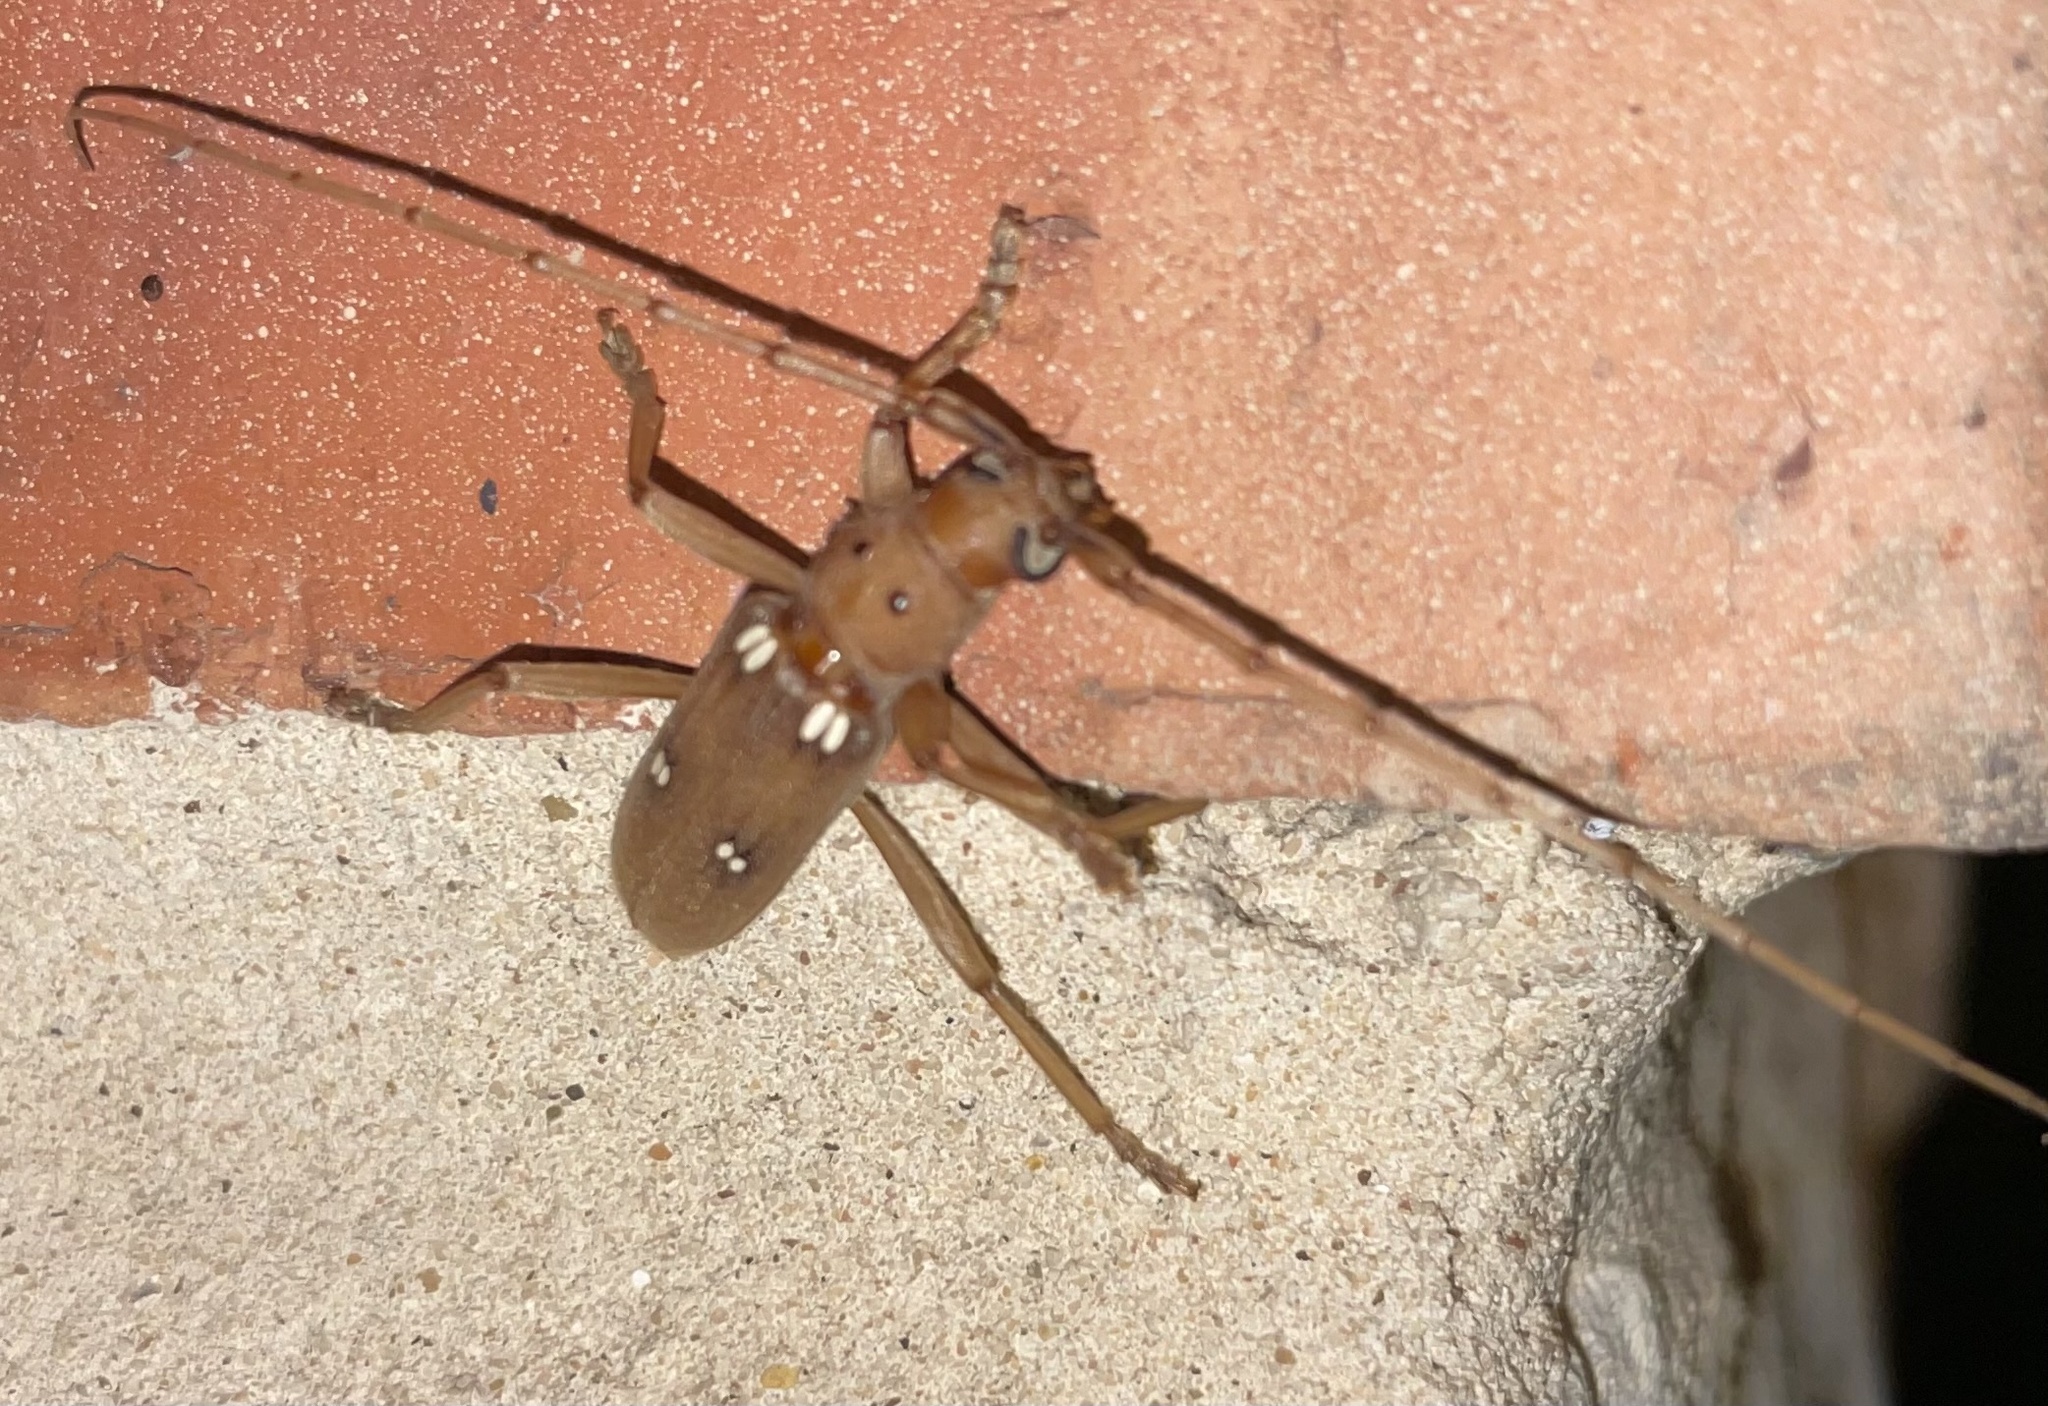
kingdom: Animalia
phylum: Arthropoda
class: Insecta
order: Coleoptera
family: Cerambycidae
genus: Eburia
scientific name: Eburia quadrigeminata
